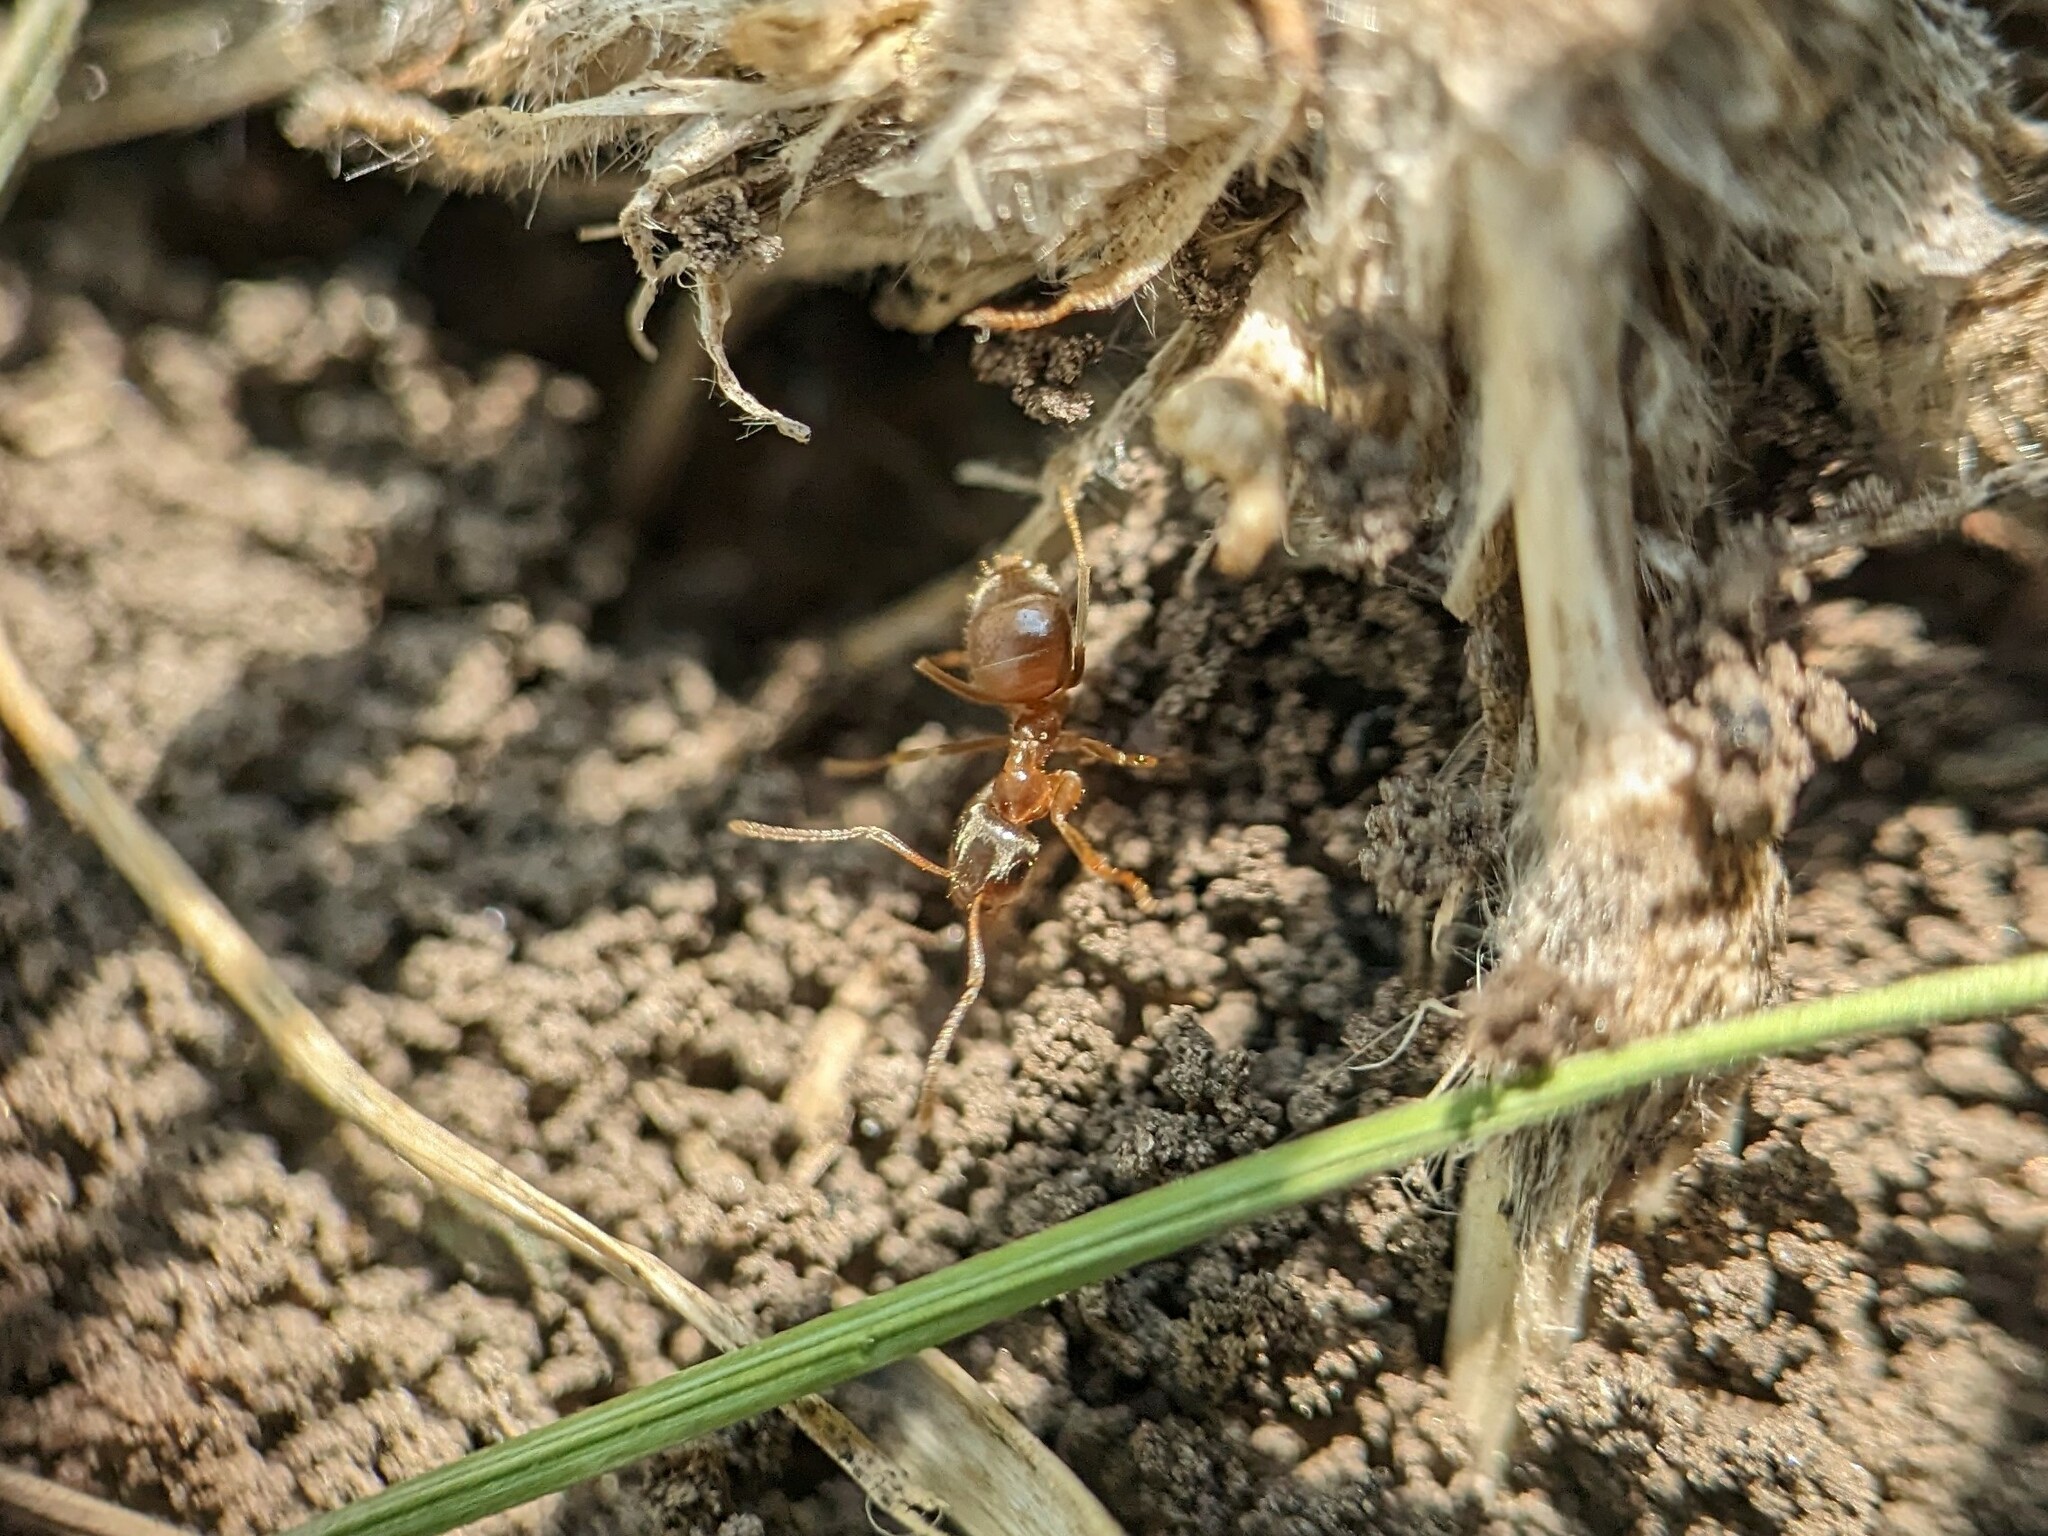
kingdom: Animalia
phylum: Arthropoda
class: Insecta
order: Hymenoptera
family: Formicidae
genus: Lasius
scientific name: Lasius neoniger
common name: Turfgrass ant
